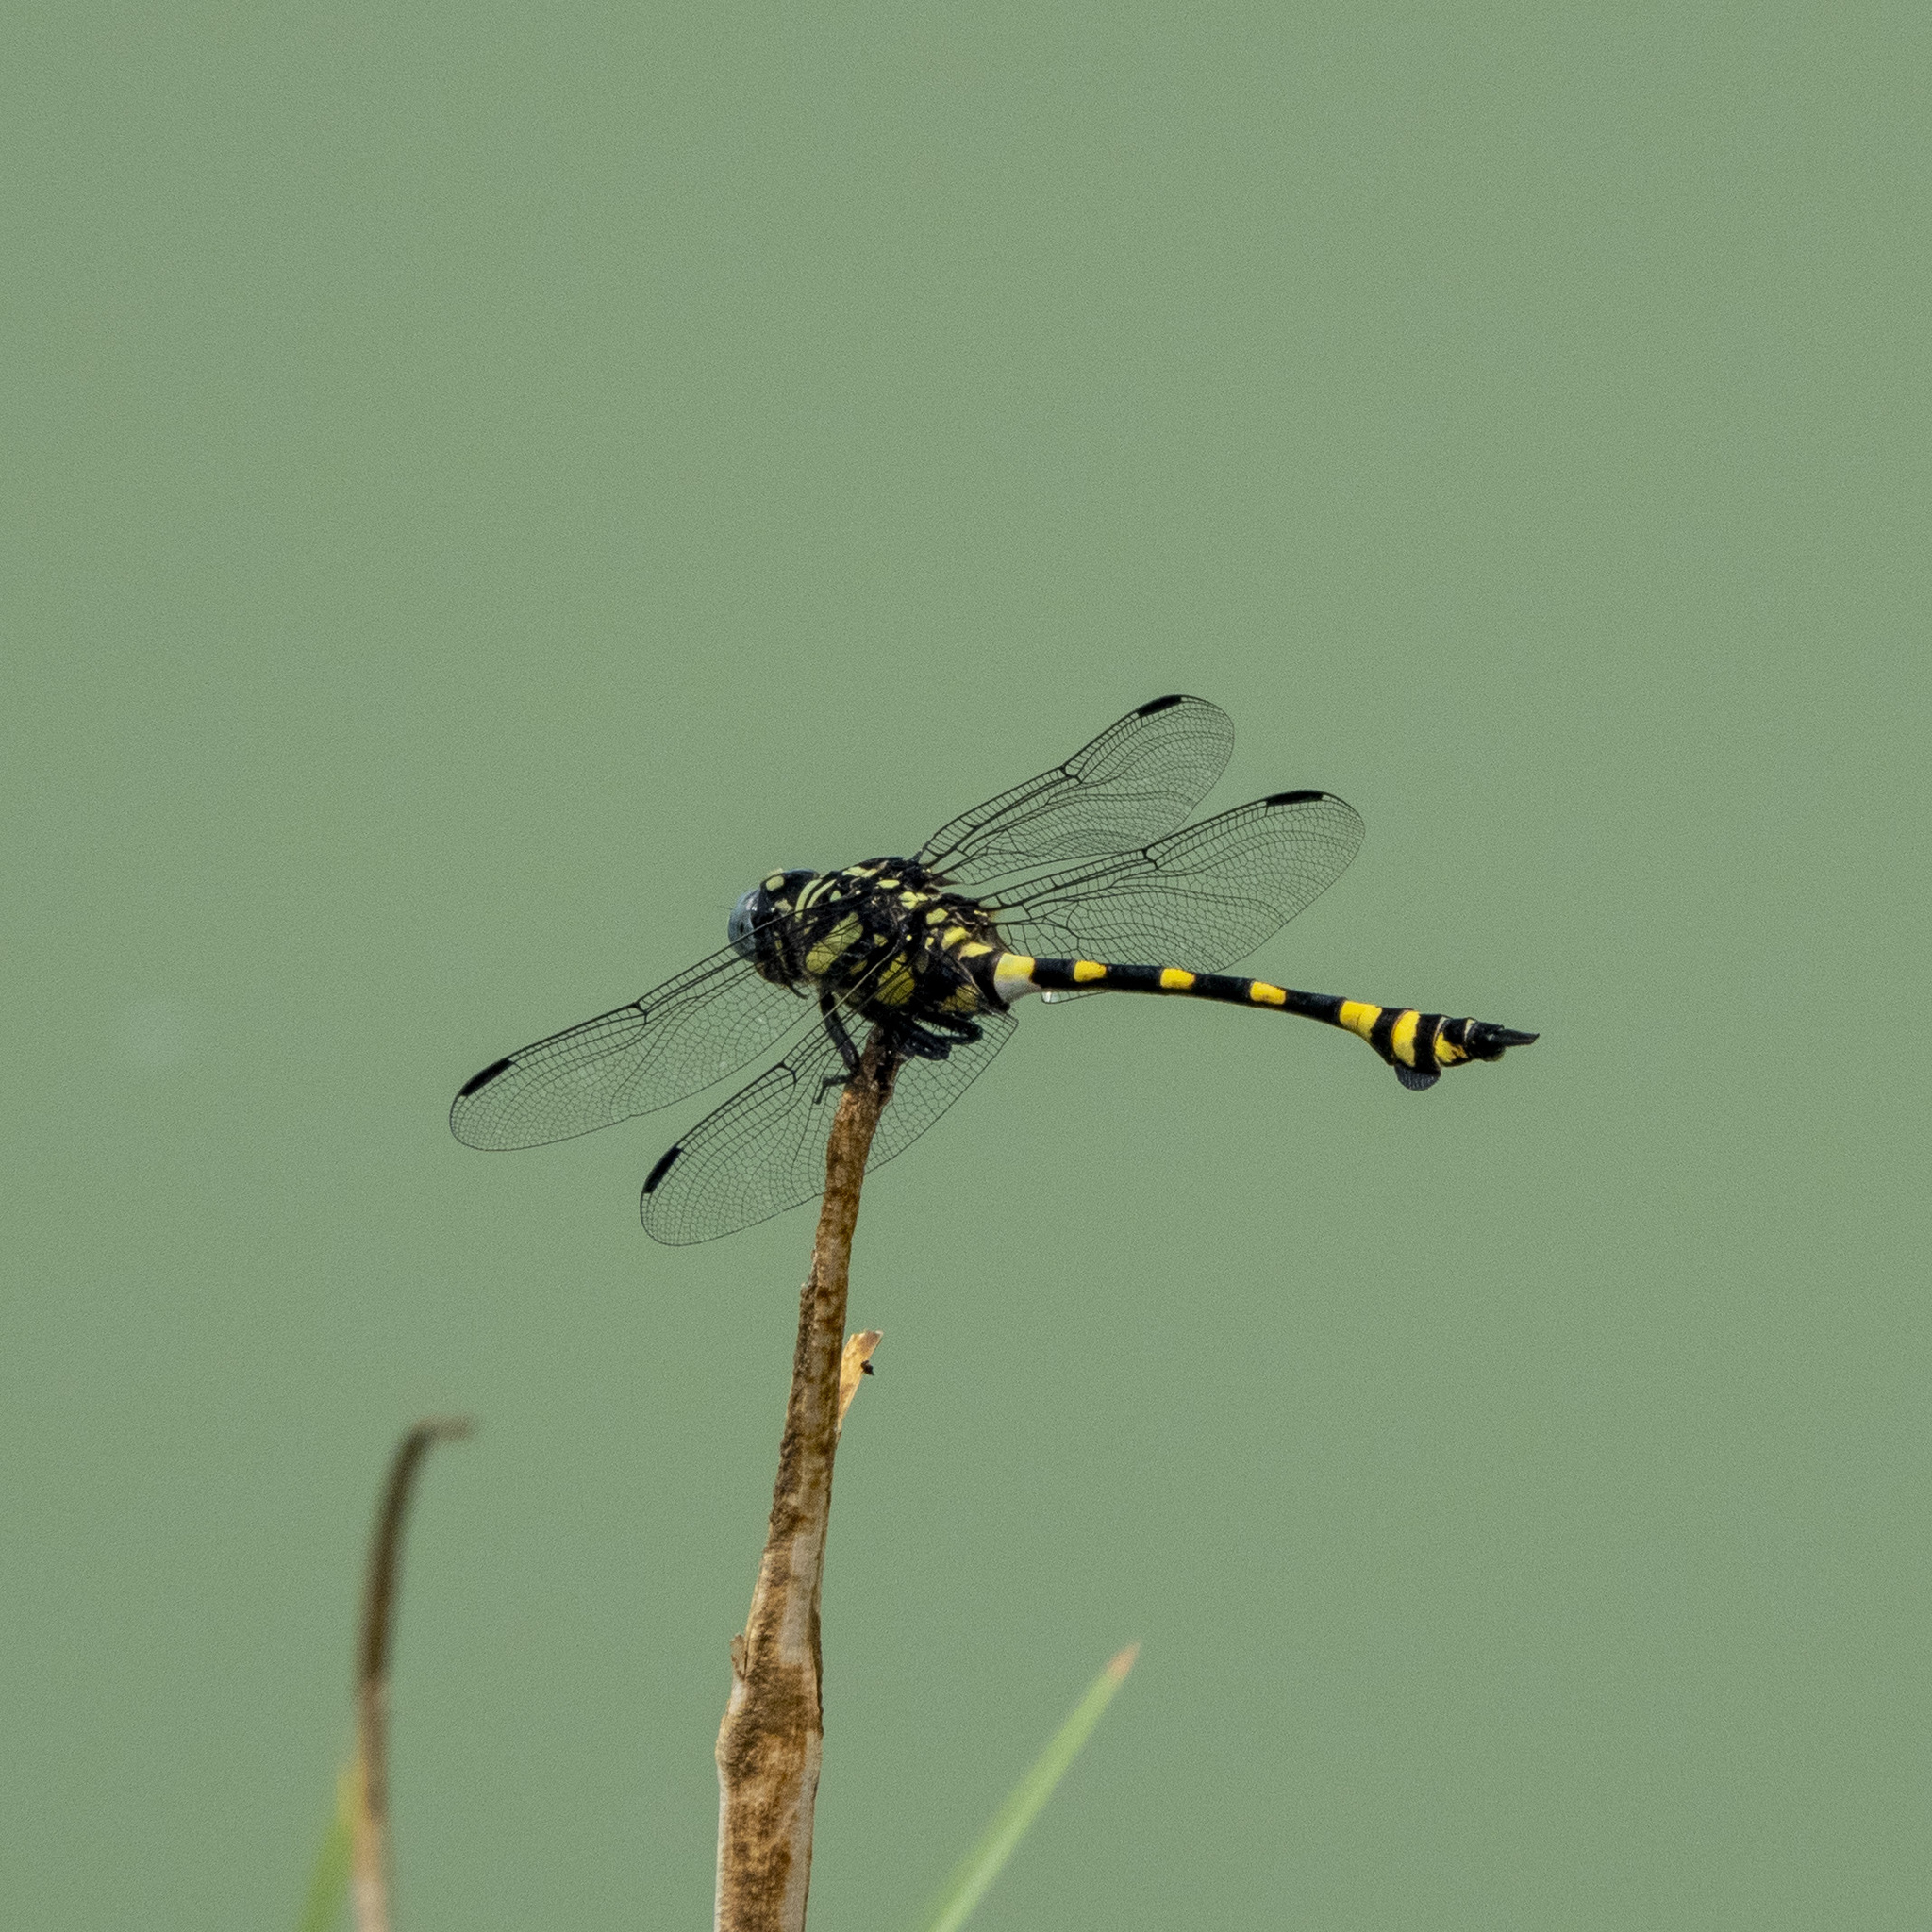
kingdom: Animalia
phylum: Arthropoda
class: Insecta
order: Odonata
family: Gomphidae
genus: Ictinogomphus
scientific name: Ictinogomphus rapax
